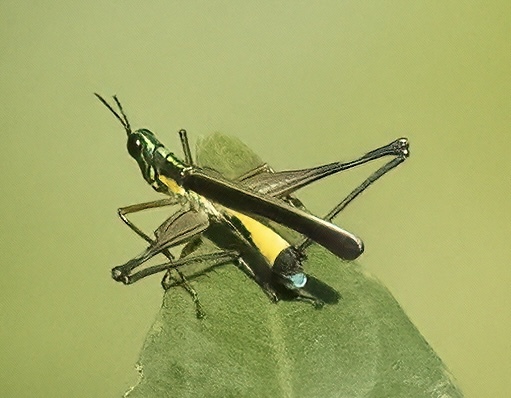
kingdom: Animalia
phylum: Arthropoda
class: Insecta
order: Orthoptera
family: Eumastacidae
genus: Paramastax
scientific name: Paramastax nigra
